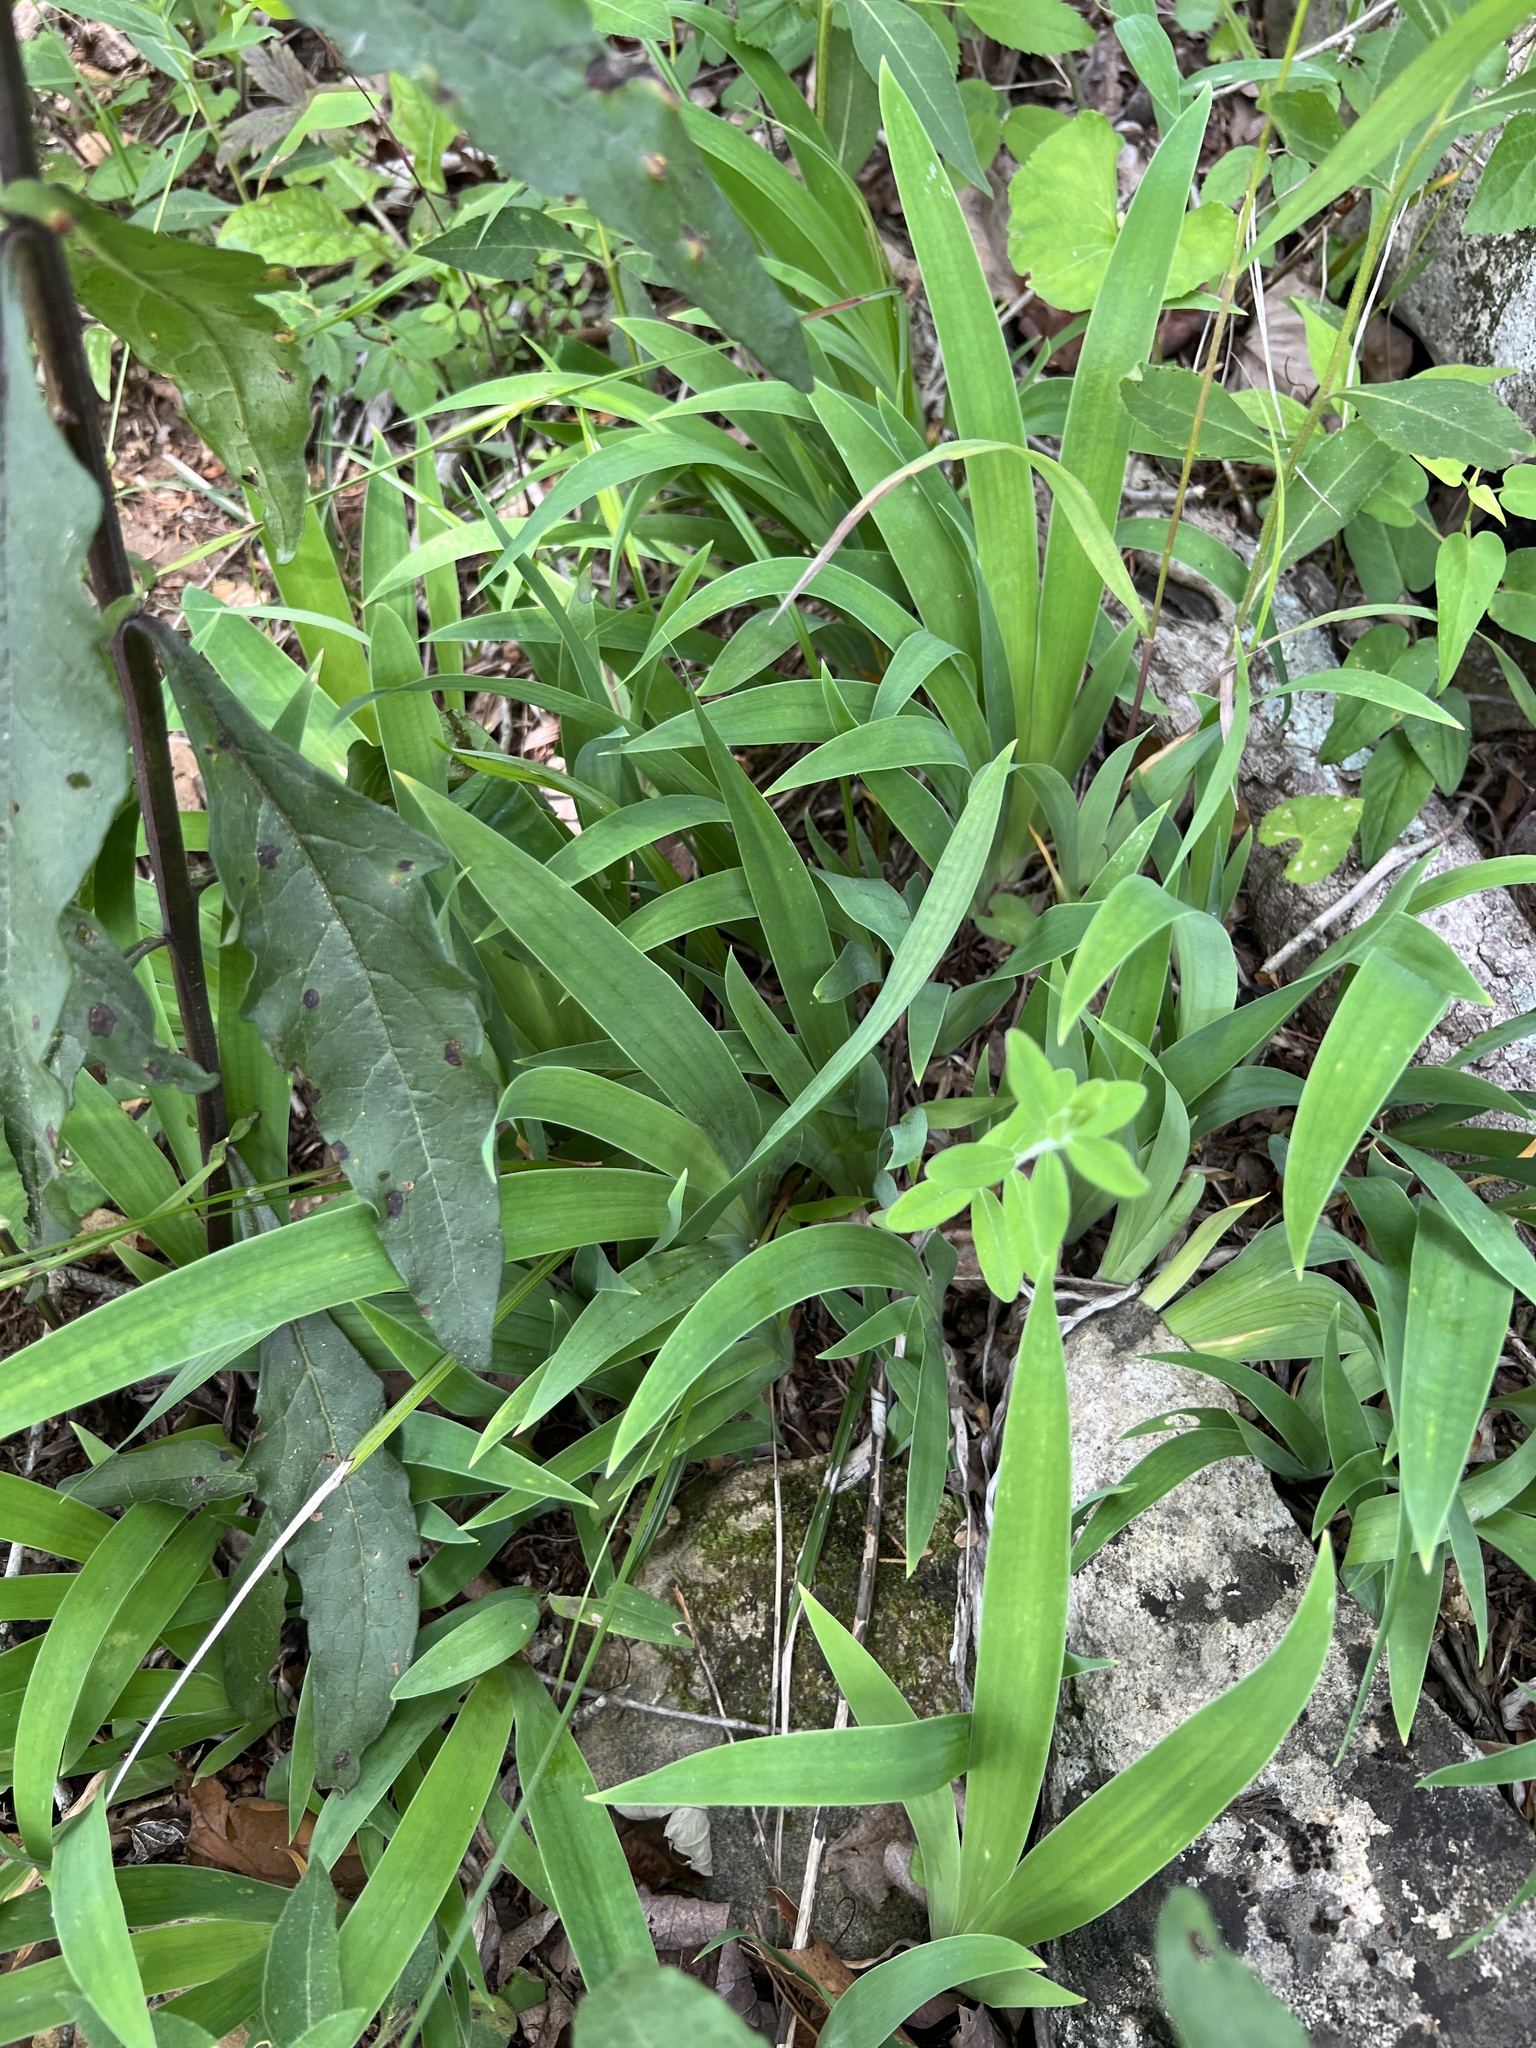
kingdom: Plantae
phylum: Tracheophyta
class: Liliopsida
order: Asparagales
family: Iridaceae
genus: Iris
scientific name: Iris cristata
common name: Crested iris
